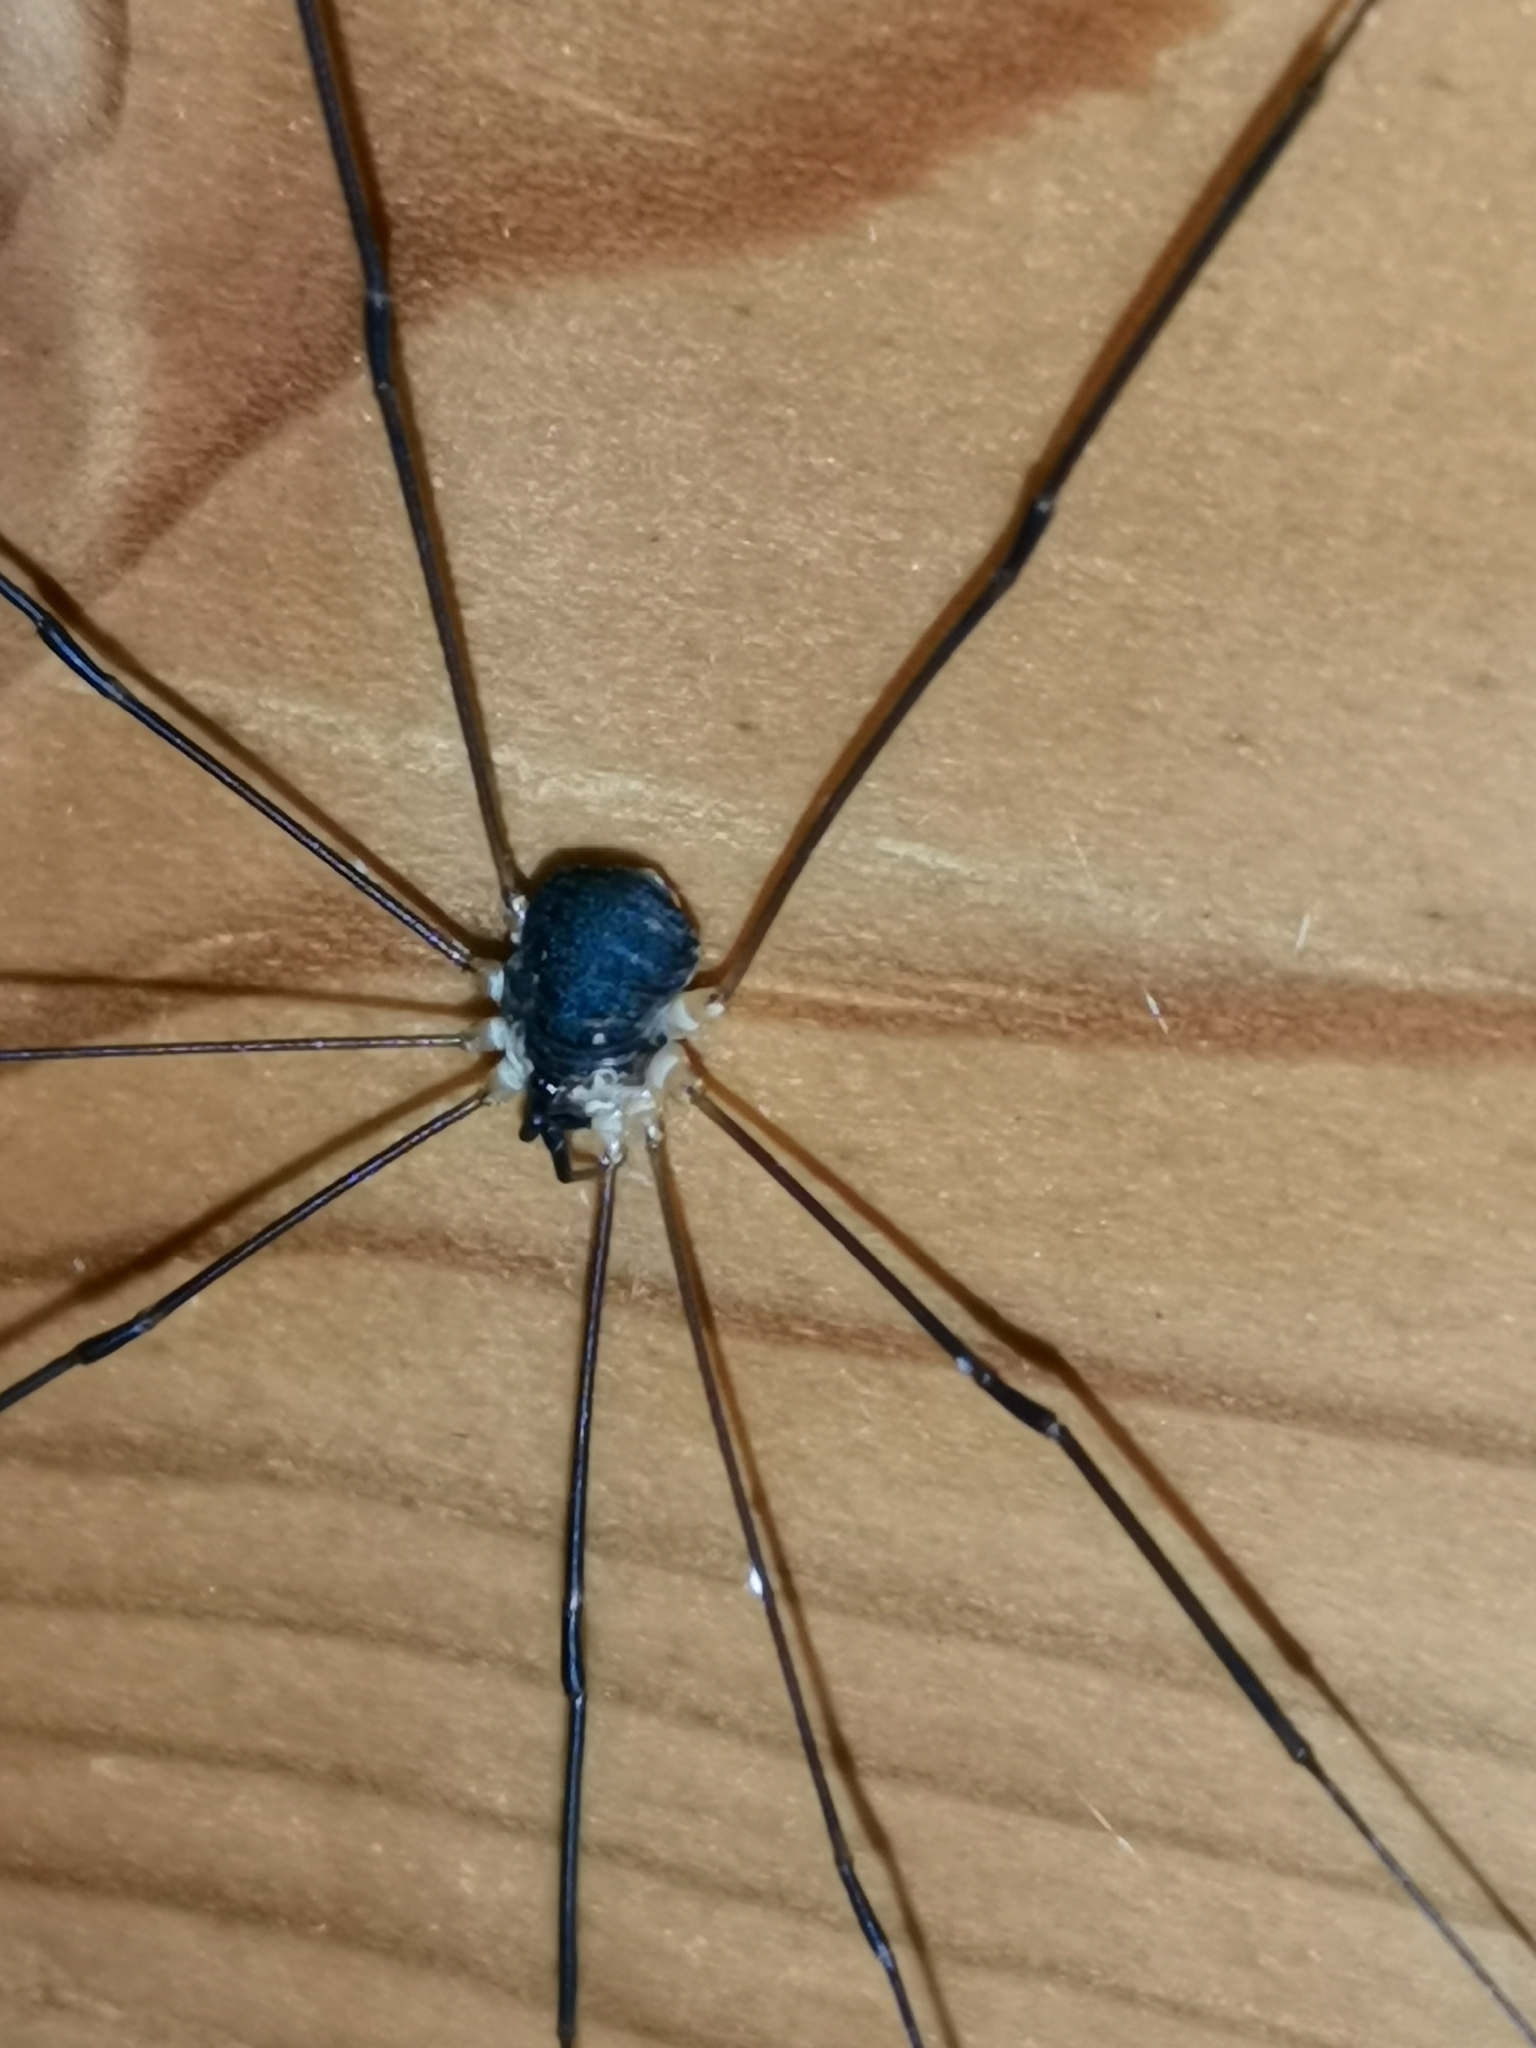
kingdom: Animalia
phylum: Arthropoda
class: Arachnida
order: Opiliones
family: Sclerosomatidae
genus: Leiobunum
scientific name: Leiobunum gracile
